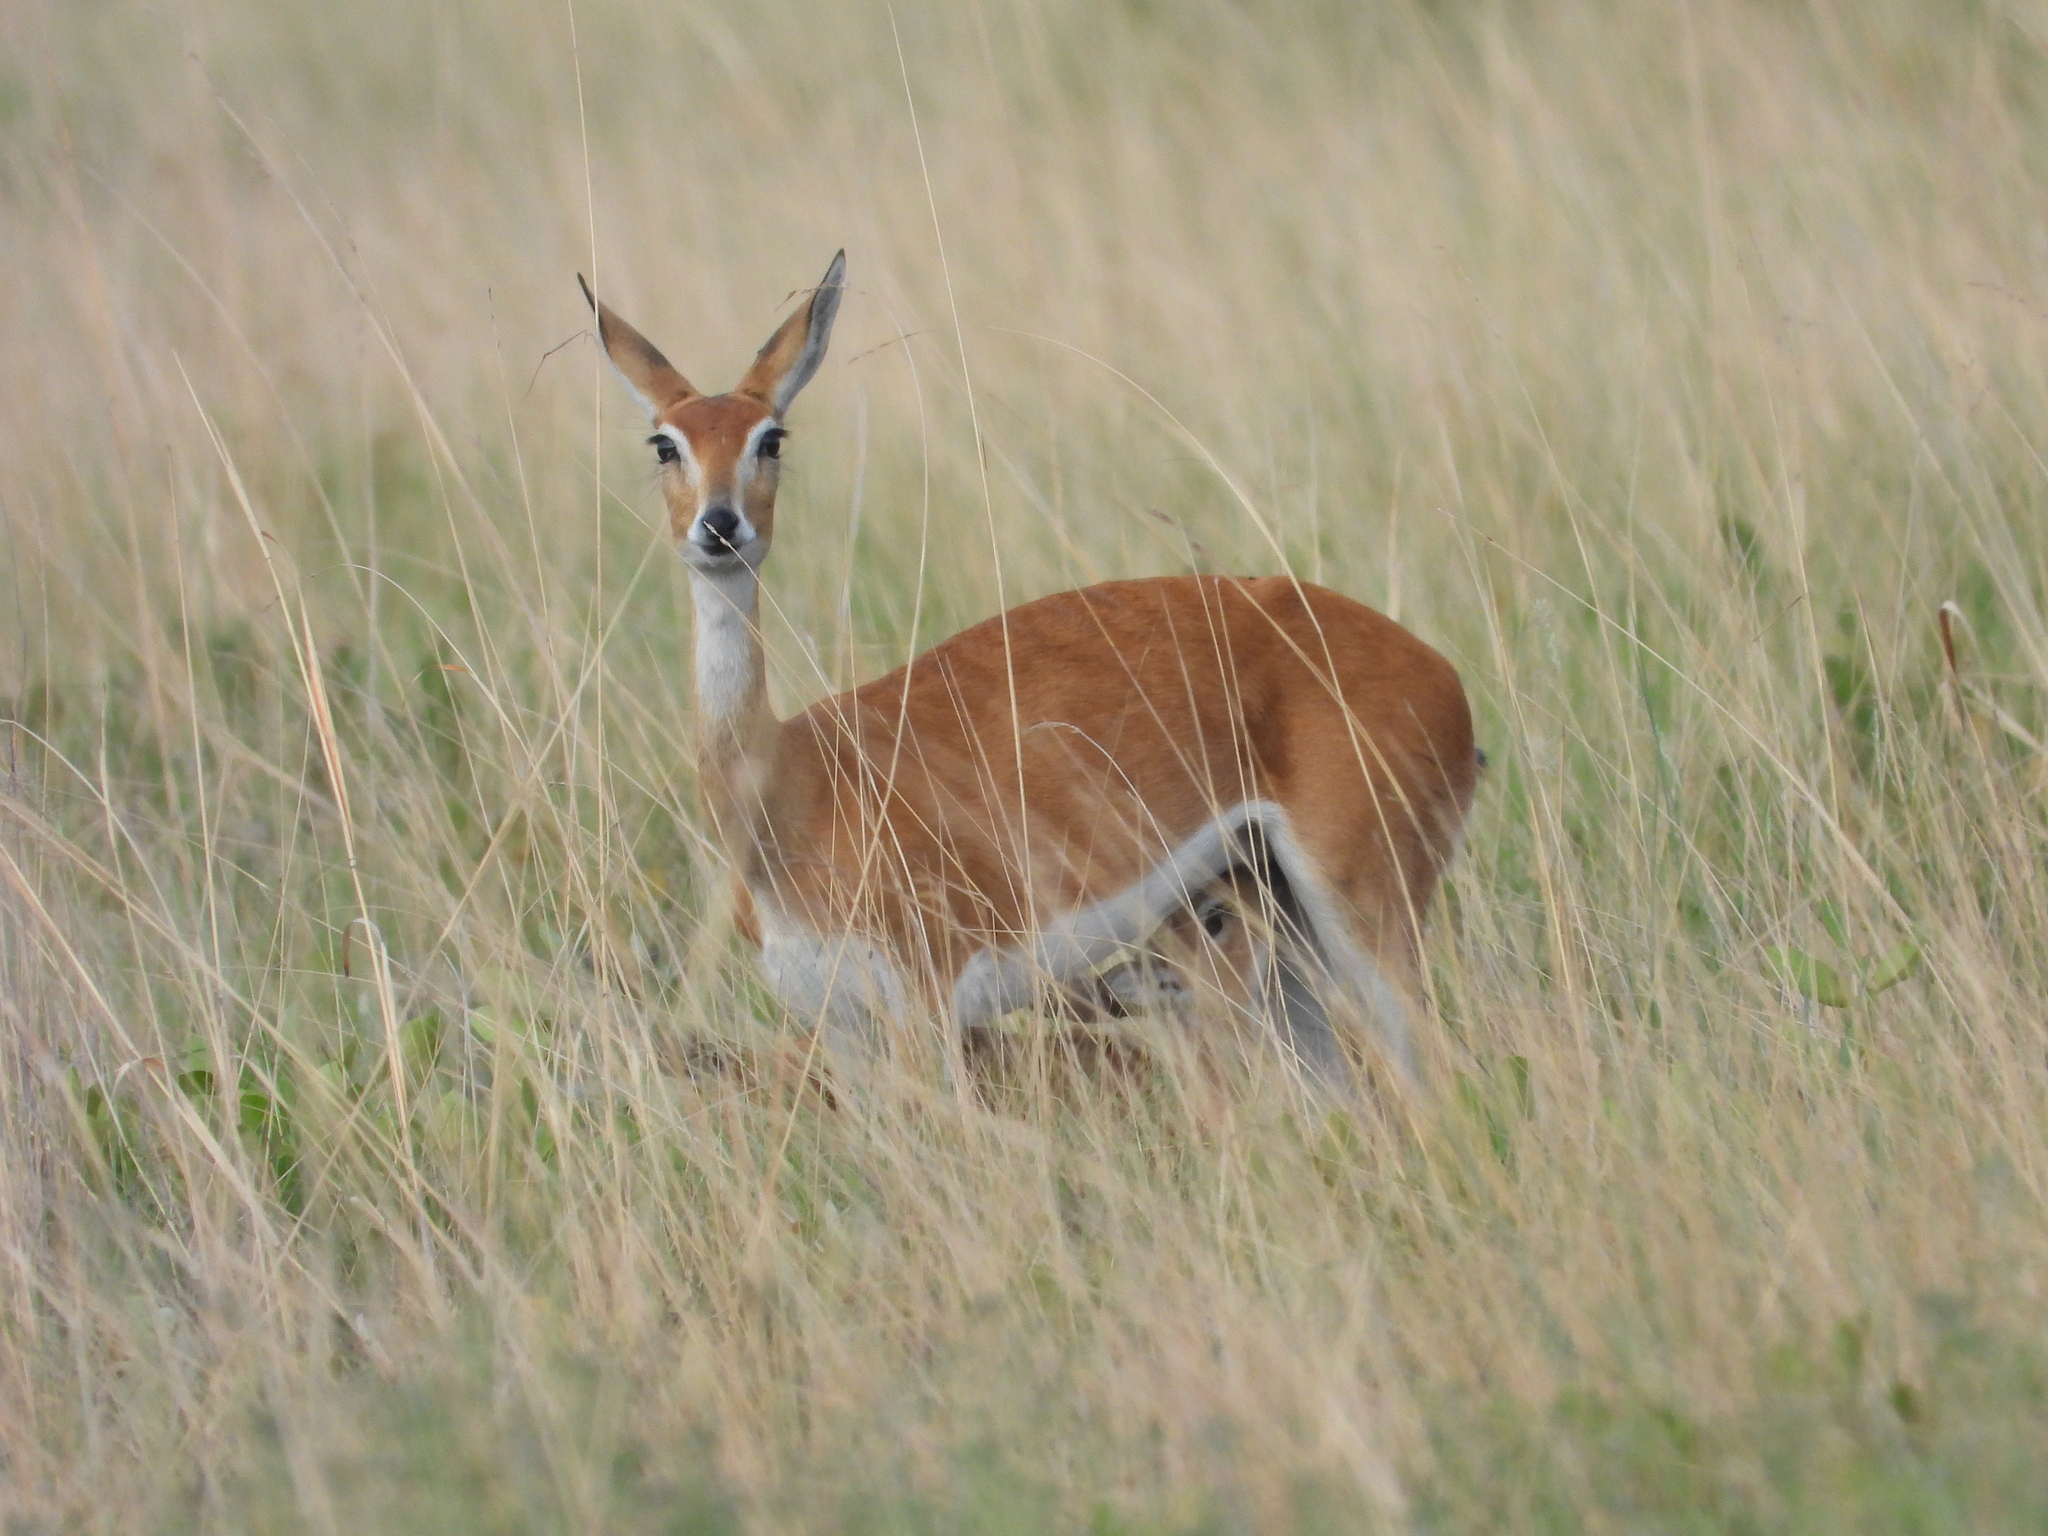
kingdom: Animalia
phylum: Chordata
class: Mammalia
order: Artiodactyla
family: Bovidae
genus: Ourebia
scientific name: Ourebia ourebi
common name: Oribi
